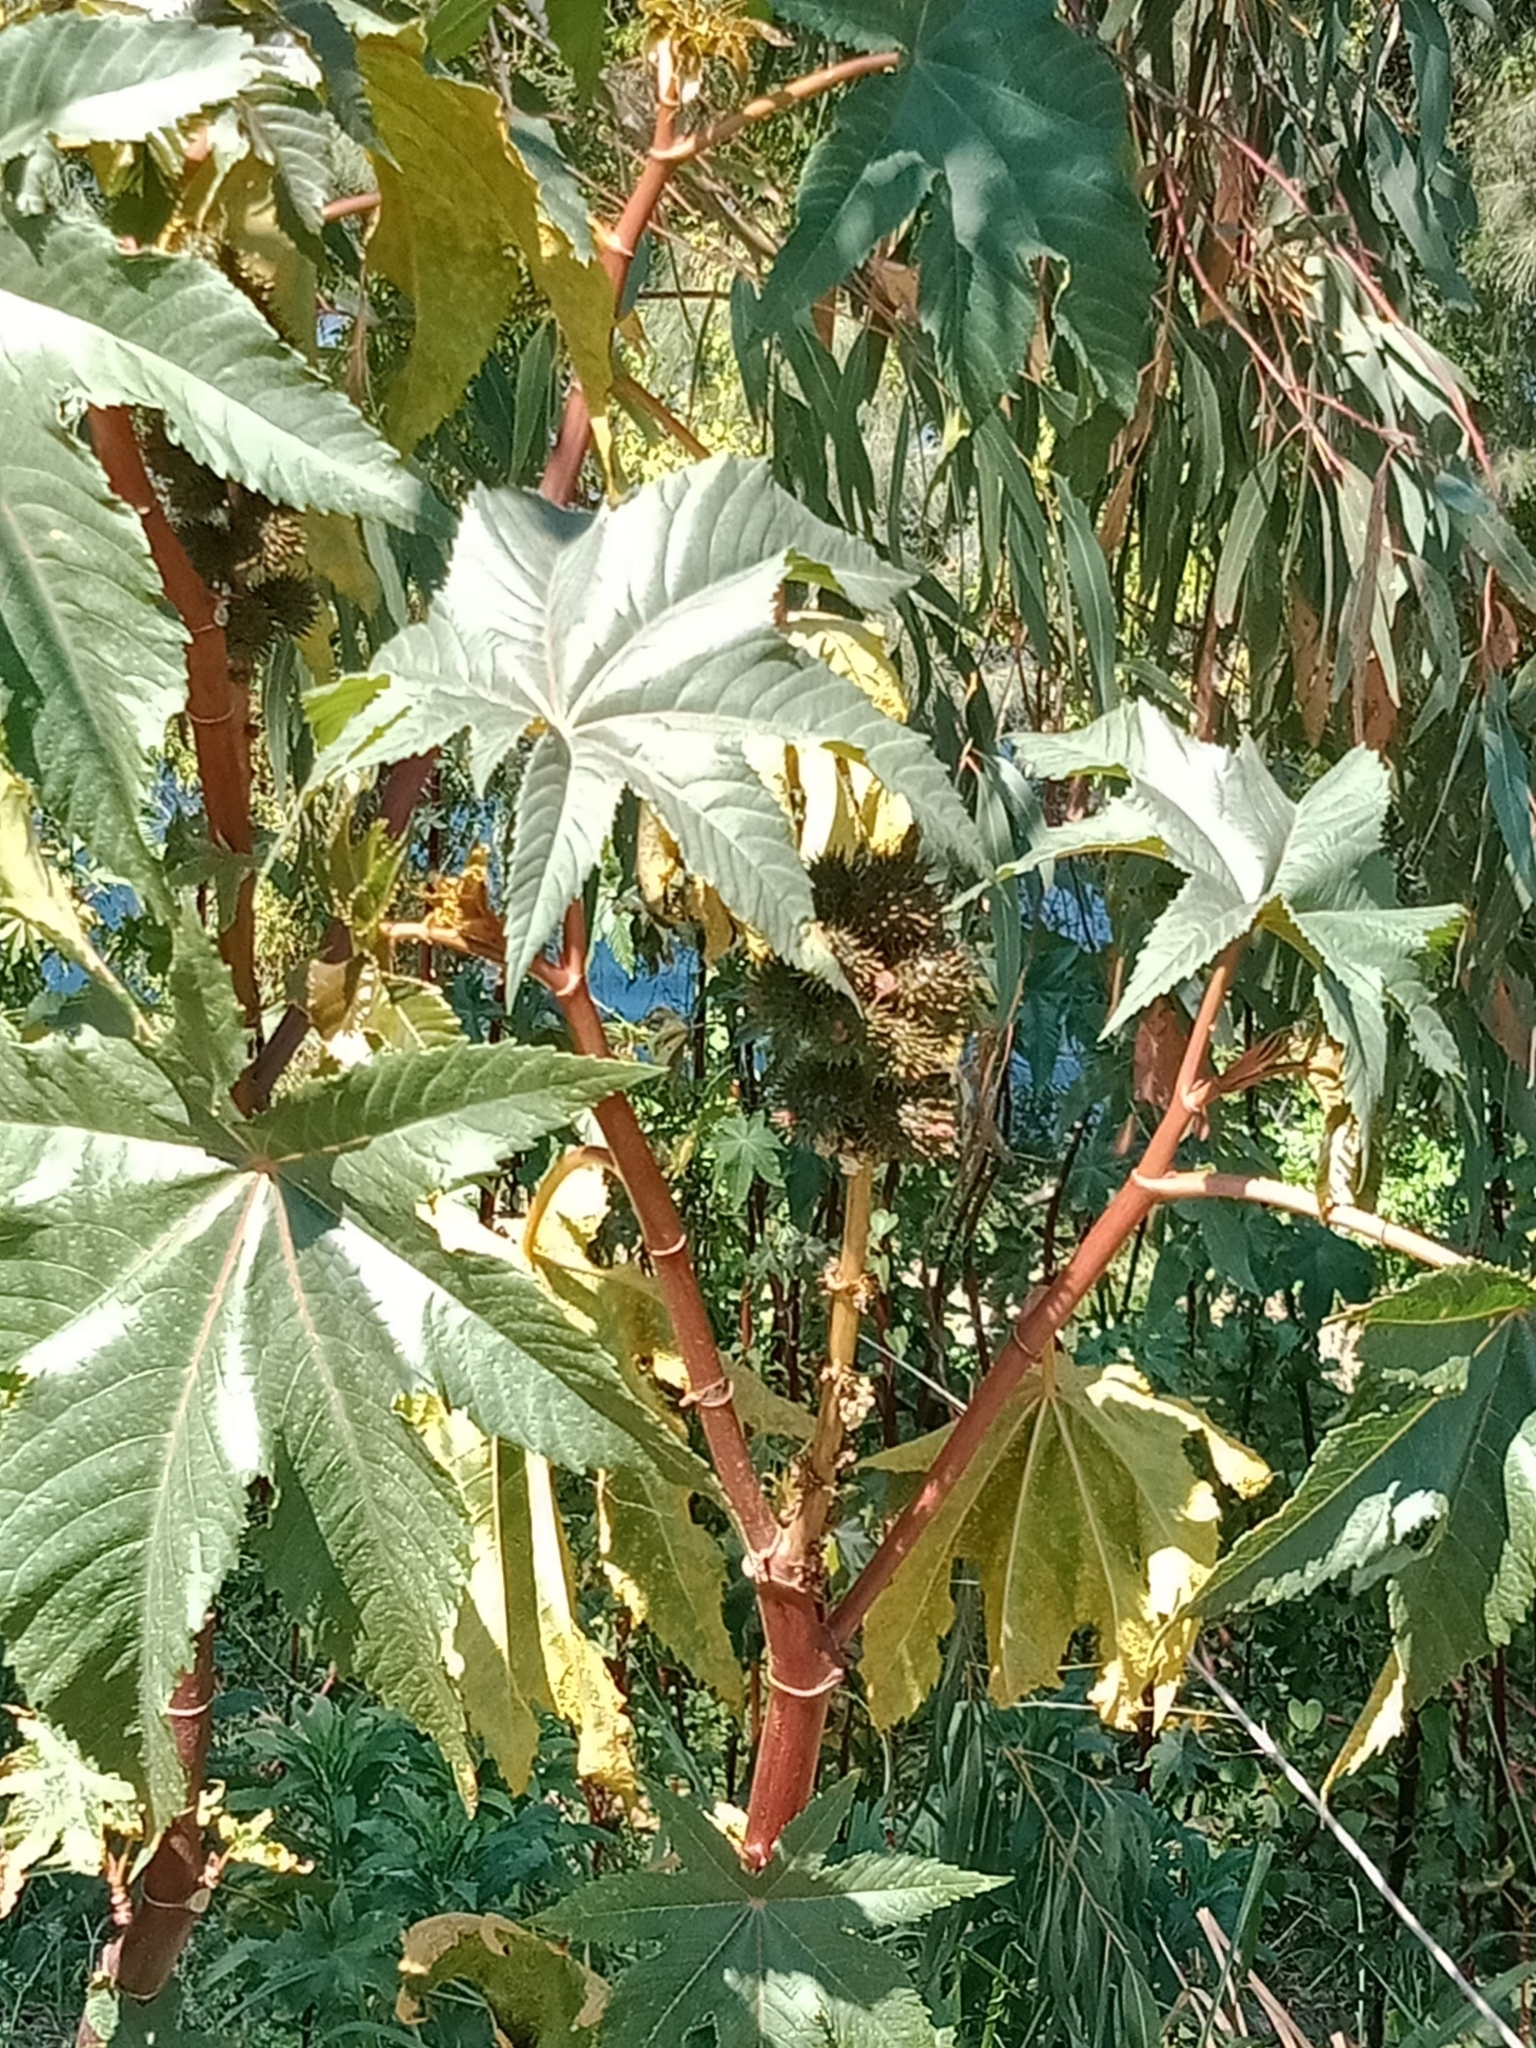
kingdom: Plantae
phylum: Tracheophyta
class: Magnoliopsida
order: Malpighiales
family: Euphorbiaceae
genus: Ricinus
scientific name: Ricinus communis
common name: Castor-oil-plant
